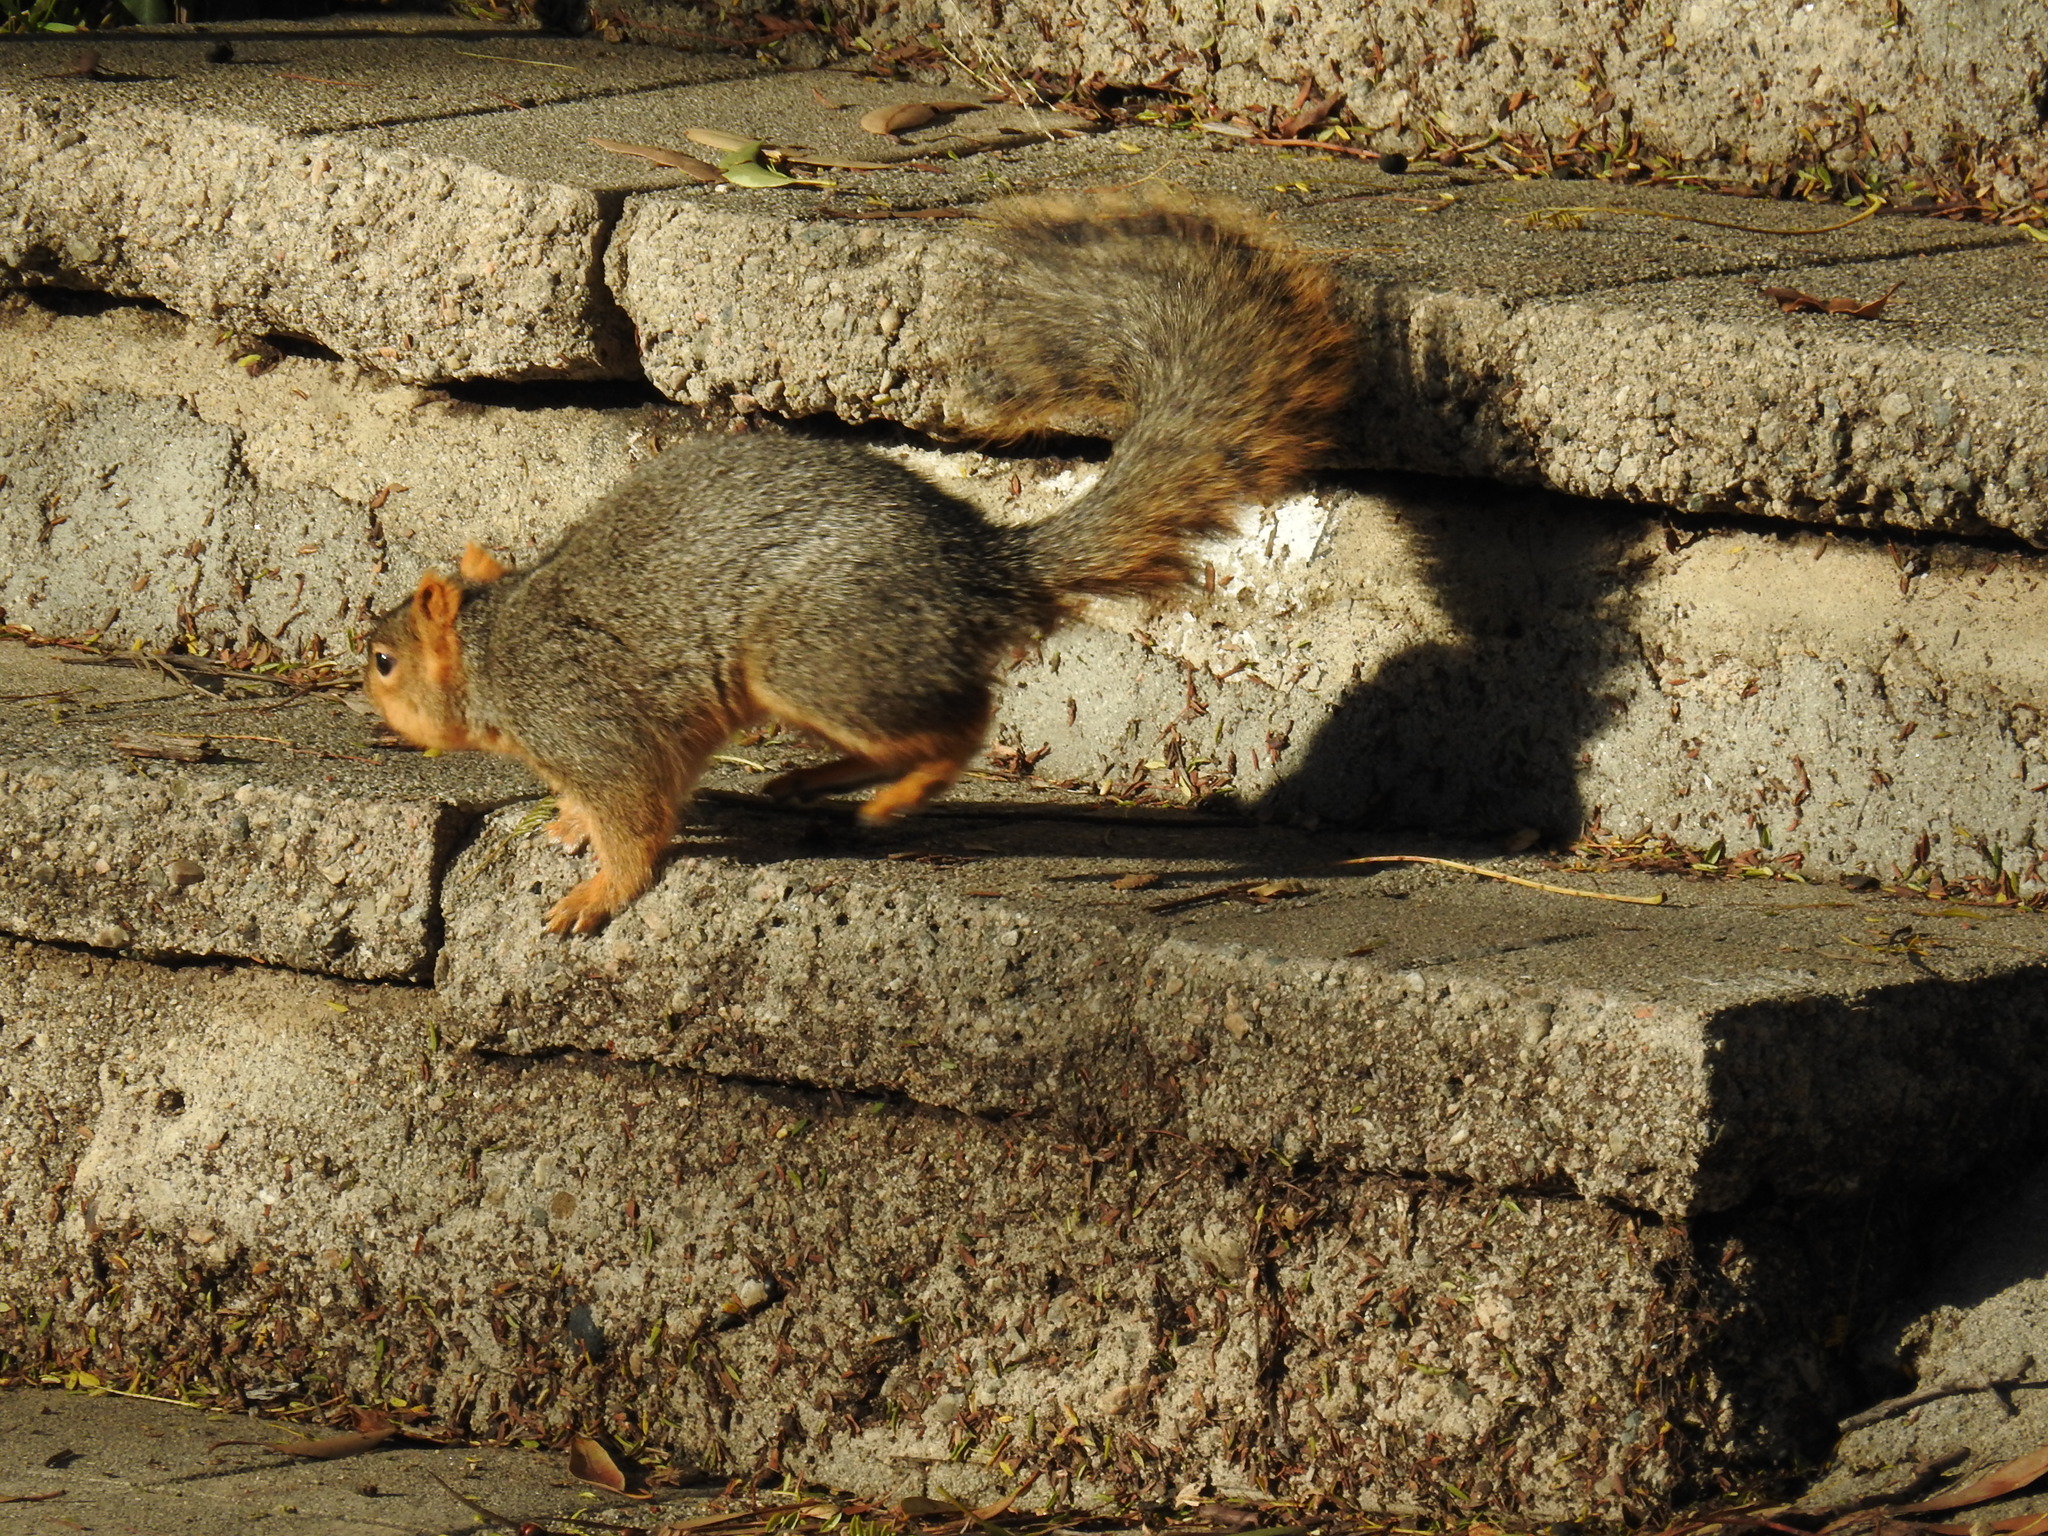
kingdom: Animalia
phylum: Chordata
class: Mammalia
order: Rodentia
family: Sciuridae
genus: Sciurus
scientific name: Sciurus niger
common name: Fox squirrel
